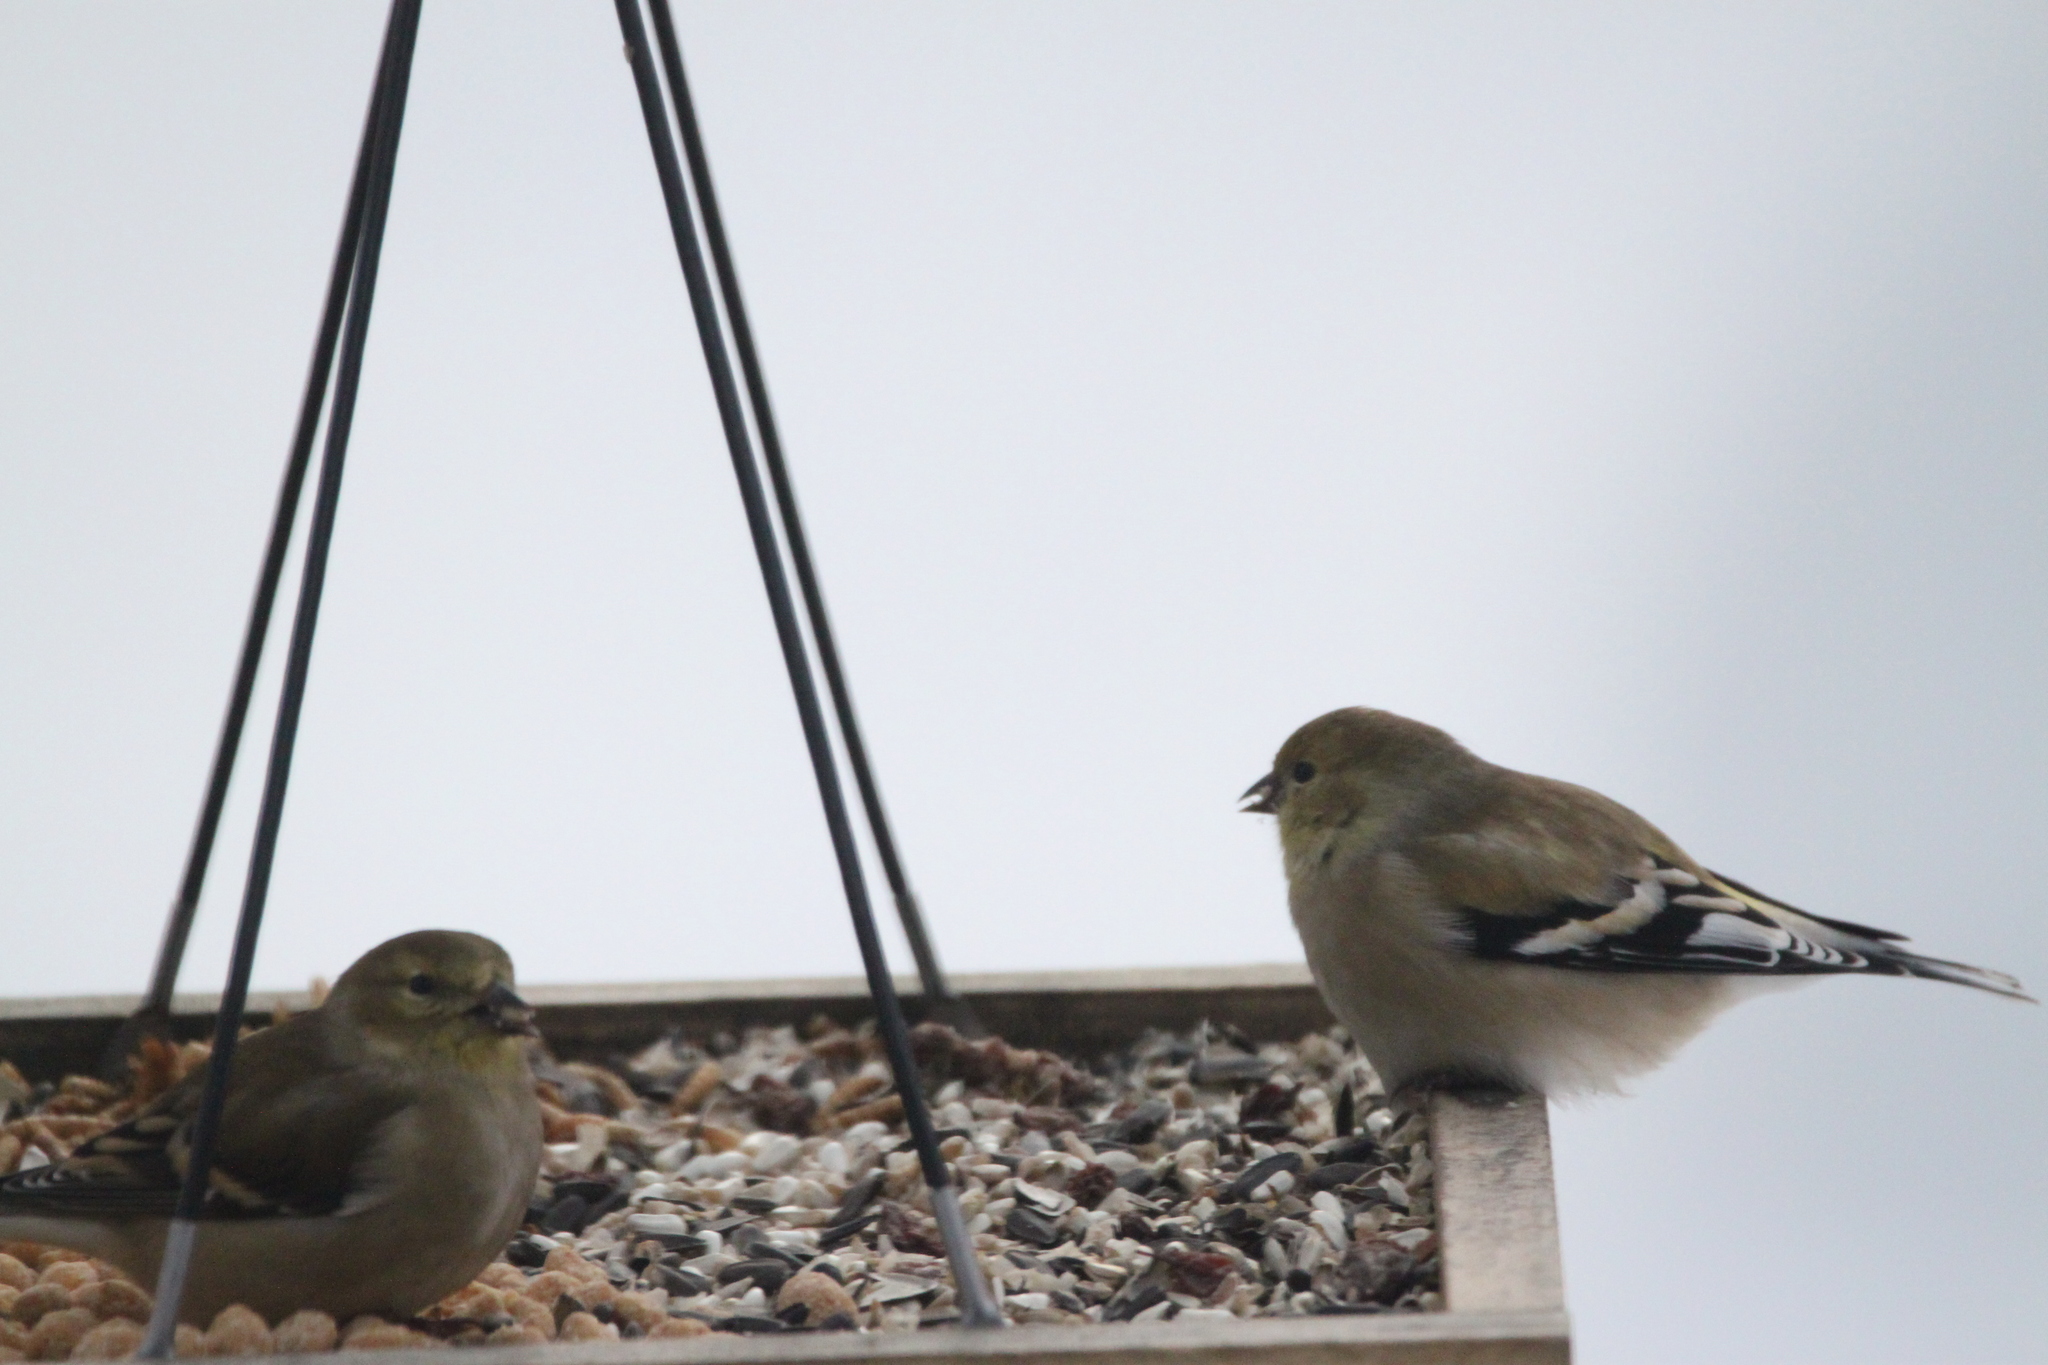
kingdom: Animalia
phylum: Chordata
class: Aves
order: Passeriformes
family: Fringillidae
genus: Spinus
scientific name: Spinus tristis
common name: American goldfinch
